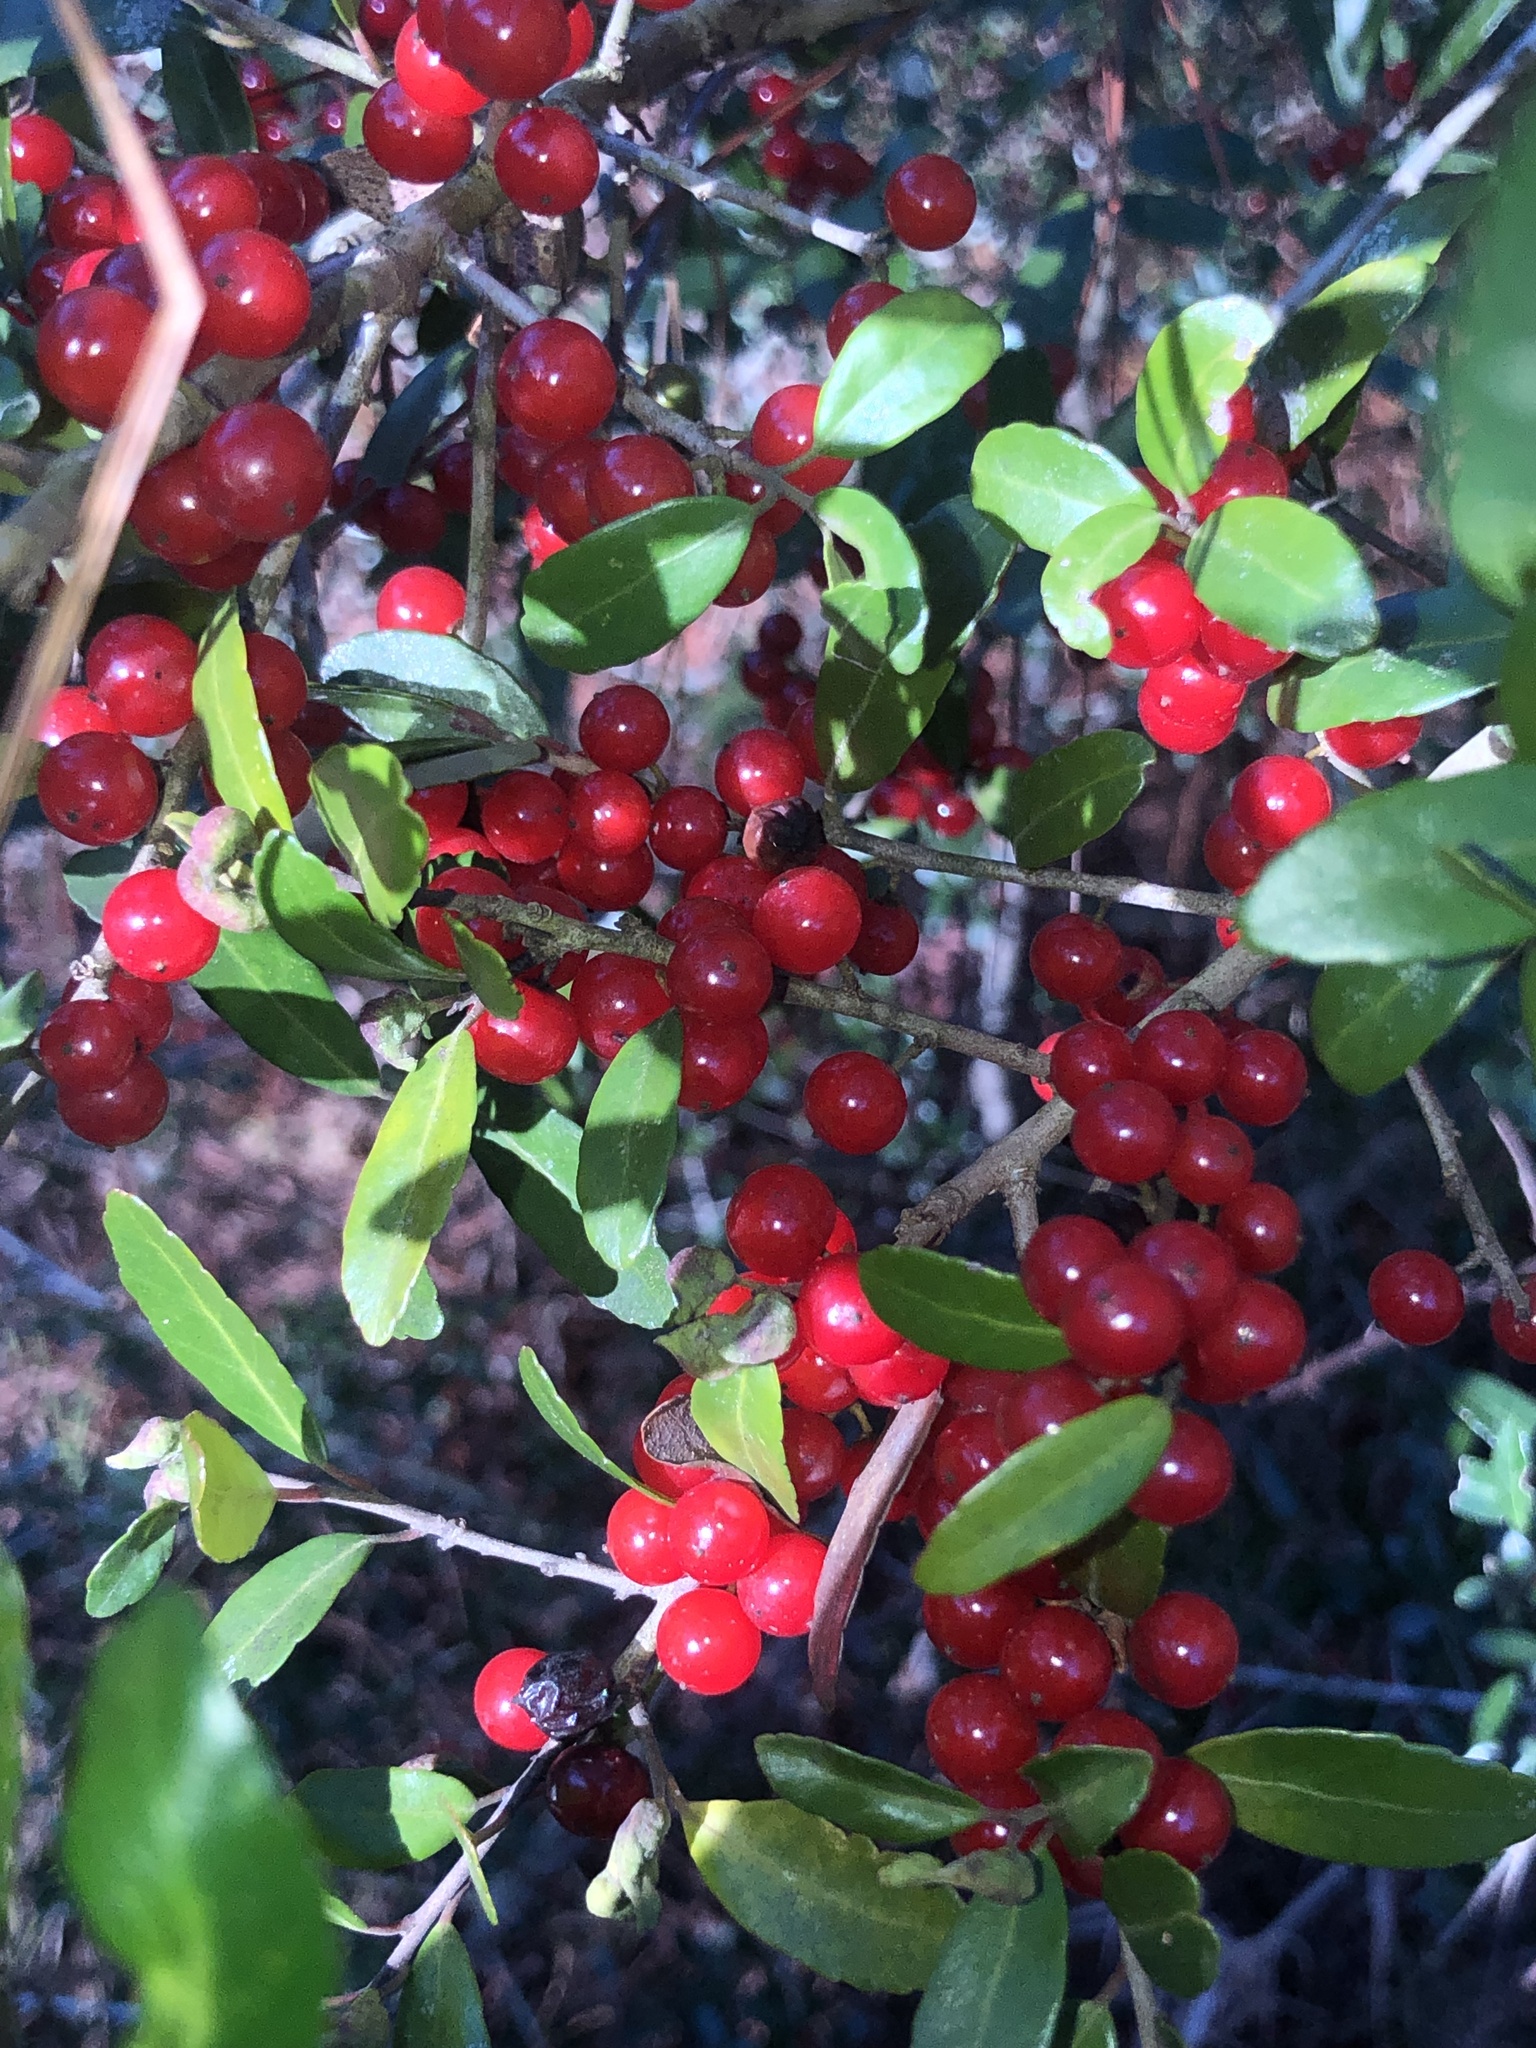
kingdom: Plantae
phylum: Tracheophyta
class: Magnoliopsida
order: Aquifoliales
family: Aquifoliaceae
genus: Ilex
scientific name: Ilex vomitoria
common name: Yaupon holly
